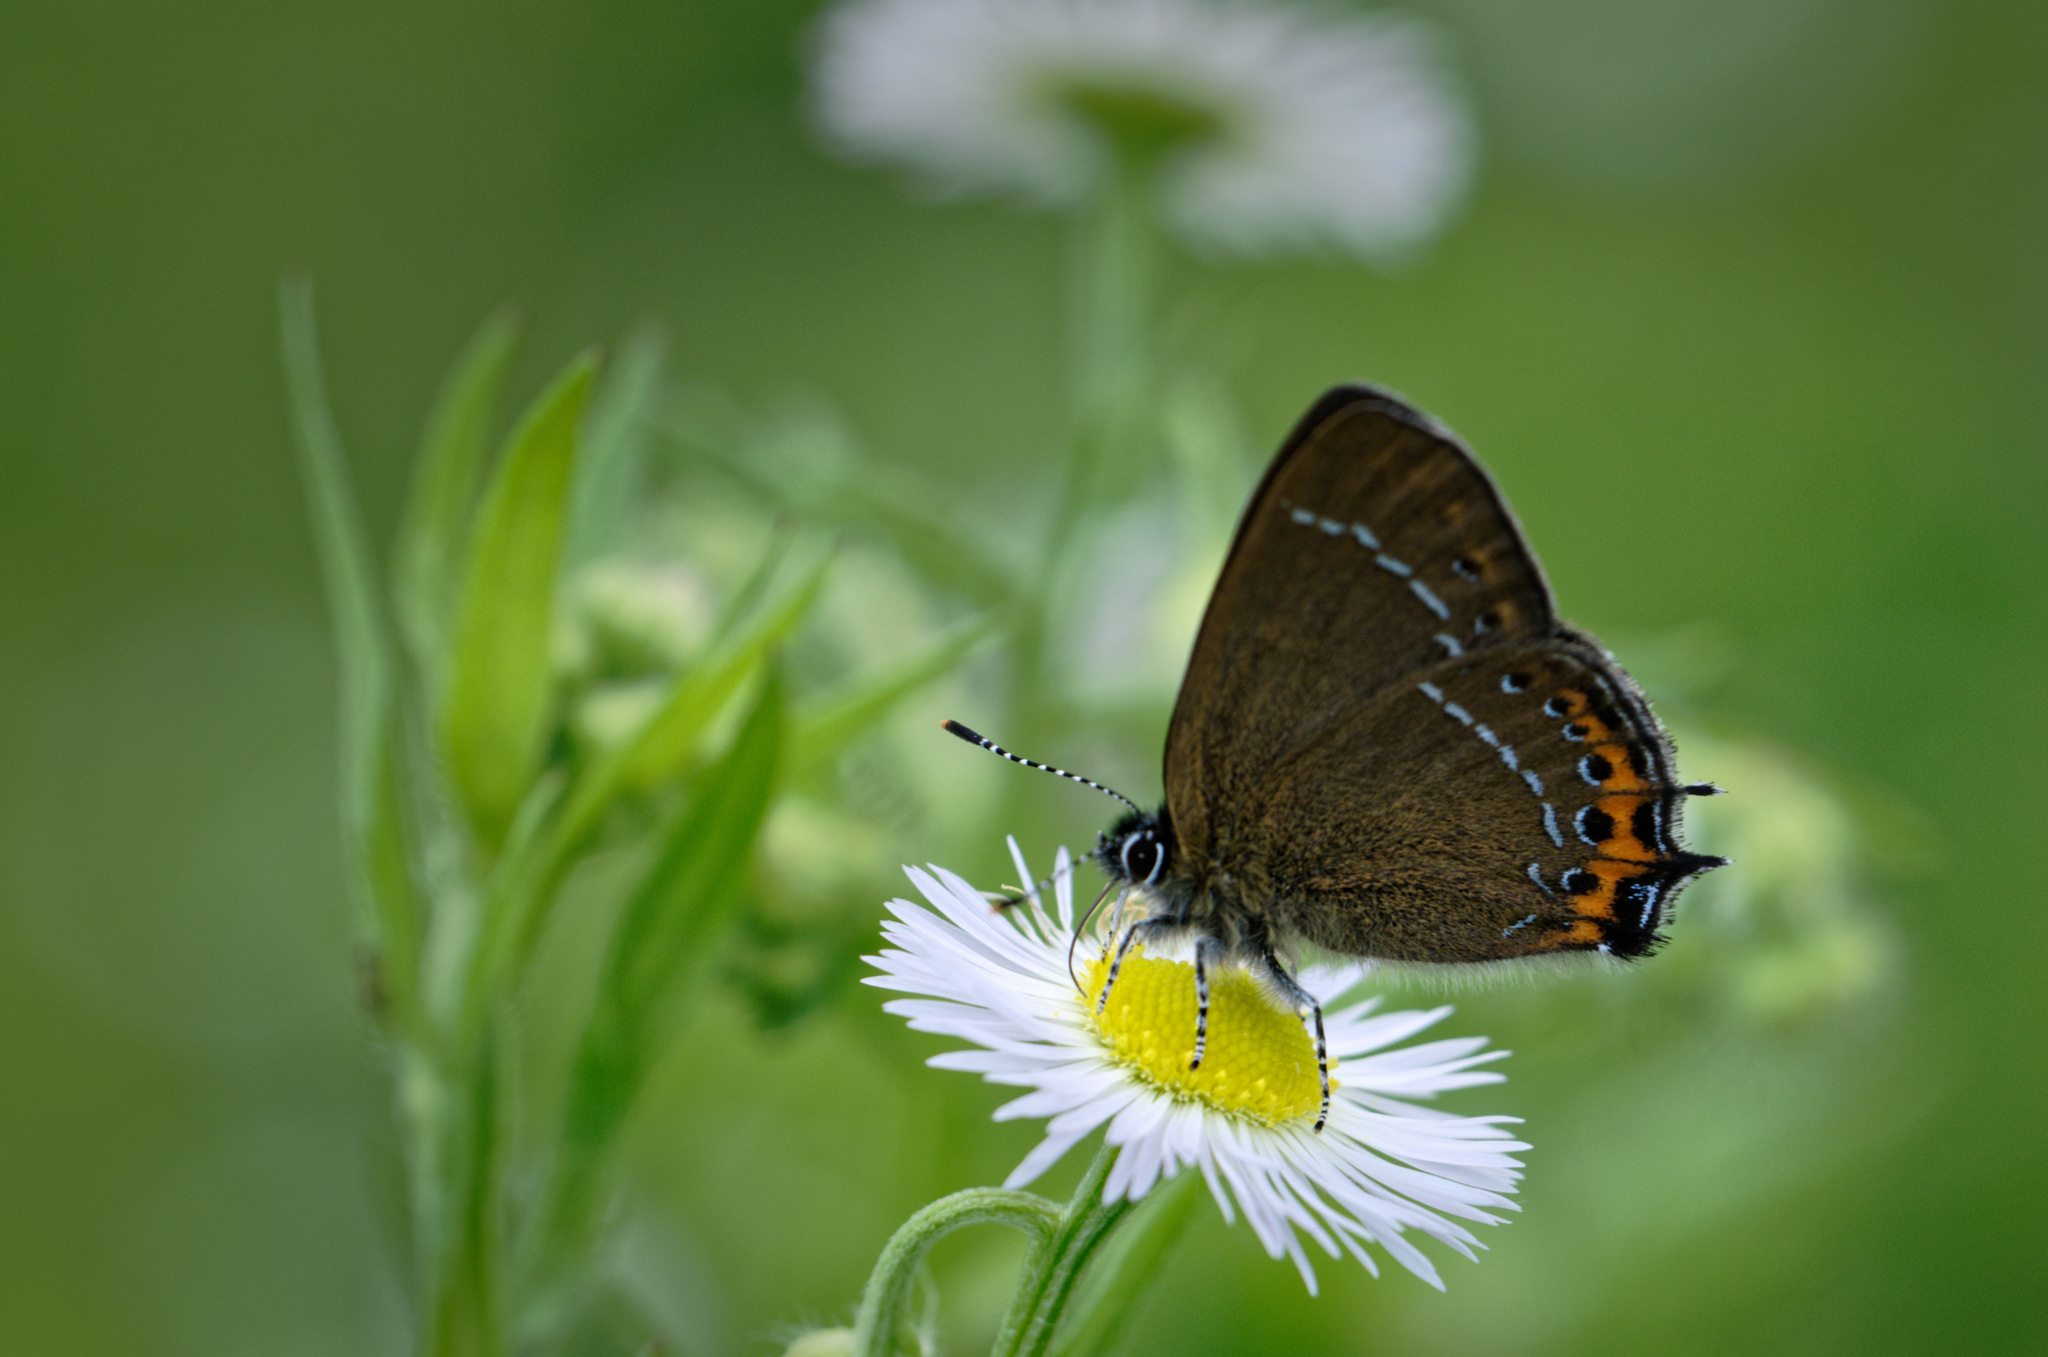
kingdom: Animalia
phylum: Arthropoda
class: Insecta
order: Lepidoptera
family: Lycaenidae
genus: Fixsenia
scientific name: Fixsenia pruni
